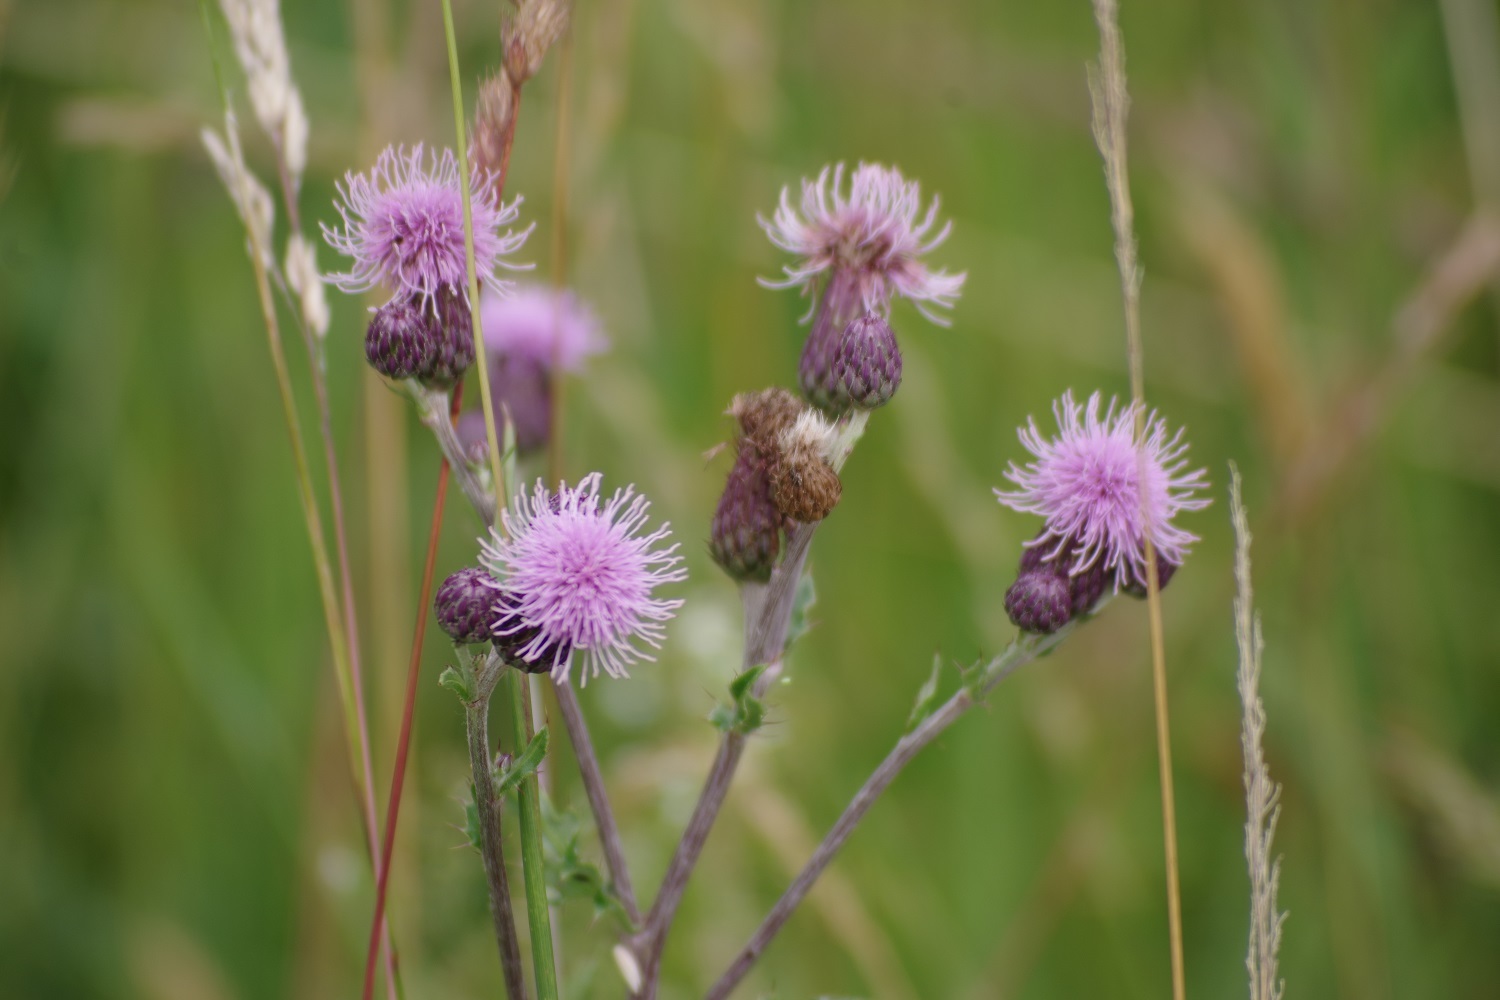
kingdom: Plantae
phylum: Tracheophyta
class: Magnoliopsida
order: Asterales
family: Asteraceae
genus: Cirsium
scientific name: Cirsium arvense
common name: Creeping thistle
